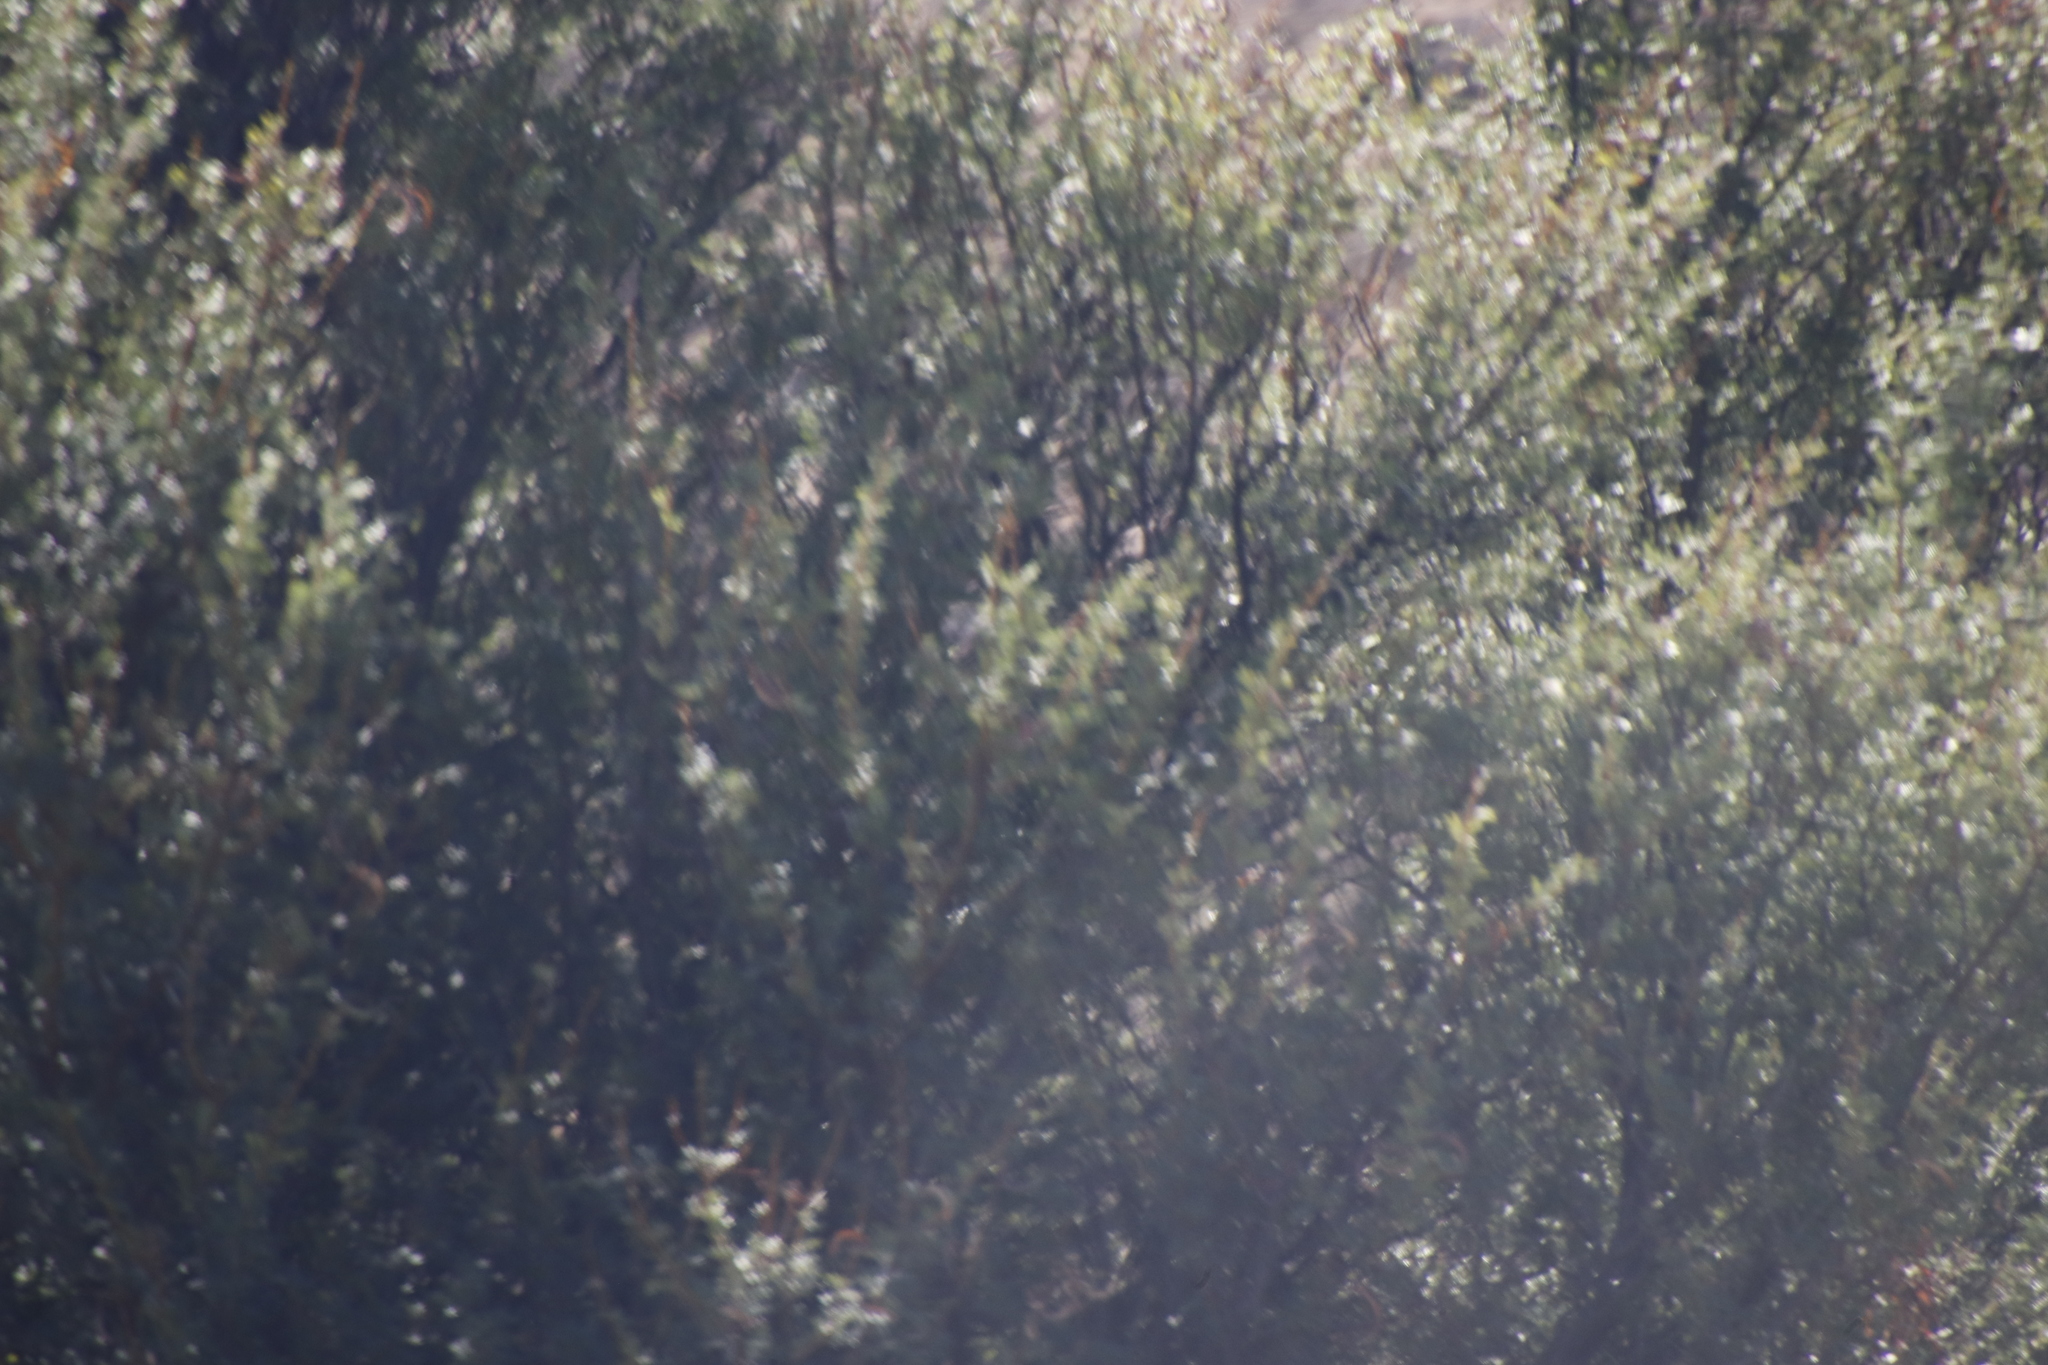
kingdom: Plantae
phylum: Tracheophyta
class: Magnoliopsida
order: Fabales
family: Fabaceae
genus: Vachellia
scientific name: Vachellia karroo
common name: Sweet thorn
